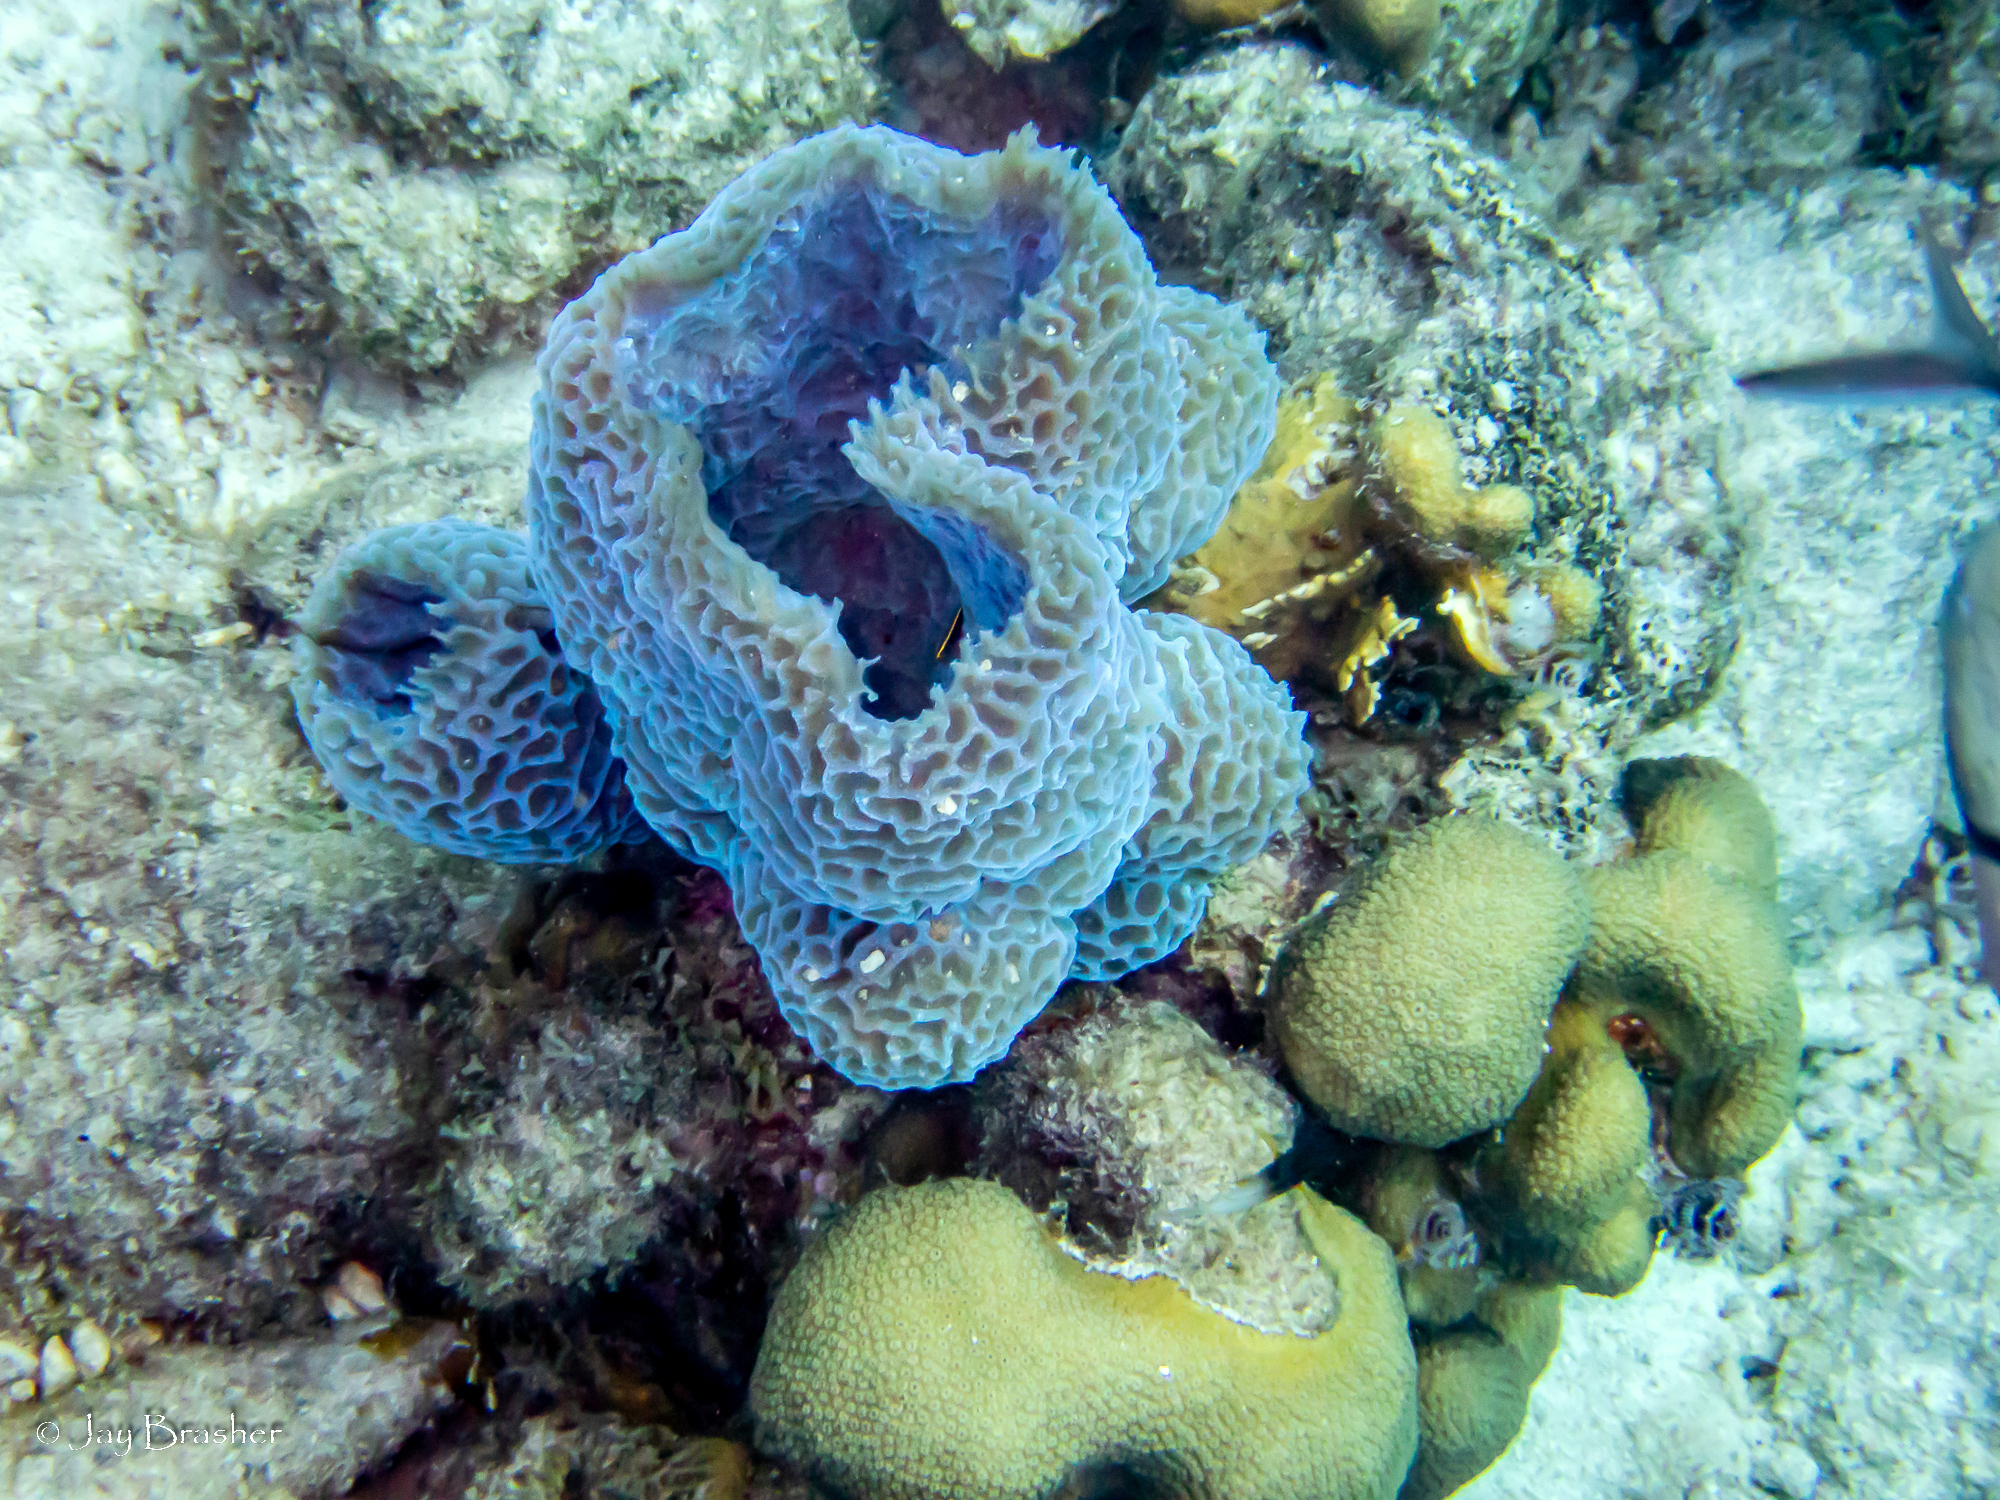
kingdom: Animalia
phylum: Cnidaria
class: Anthozoa
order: Scleractinia
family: Merulinidae
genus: Orbicella
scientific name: Orbicella annularis
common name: Boulder star coral
